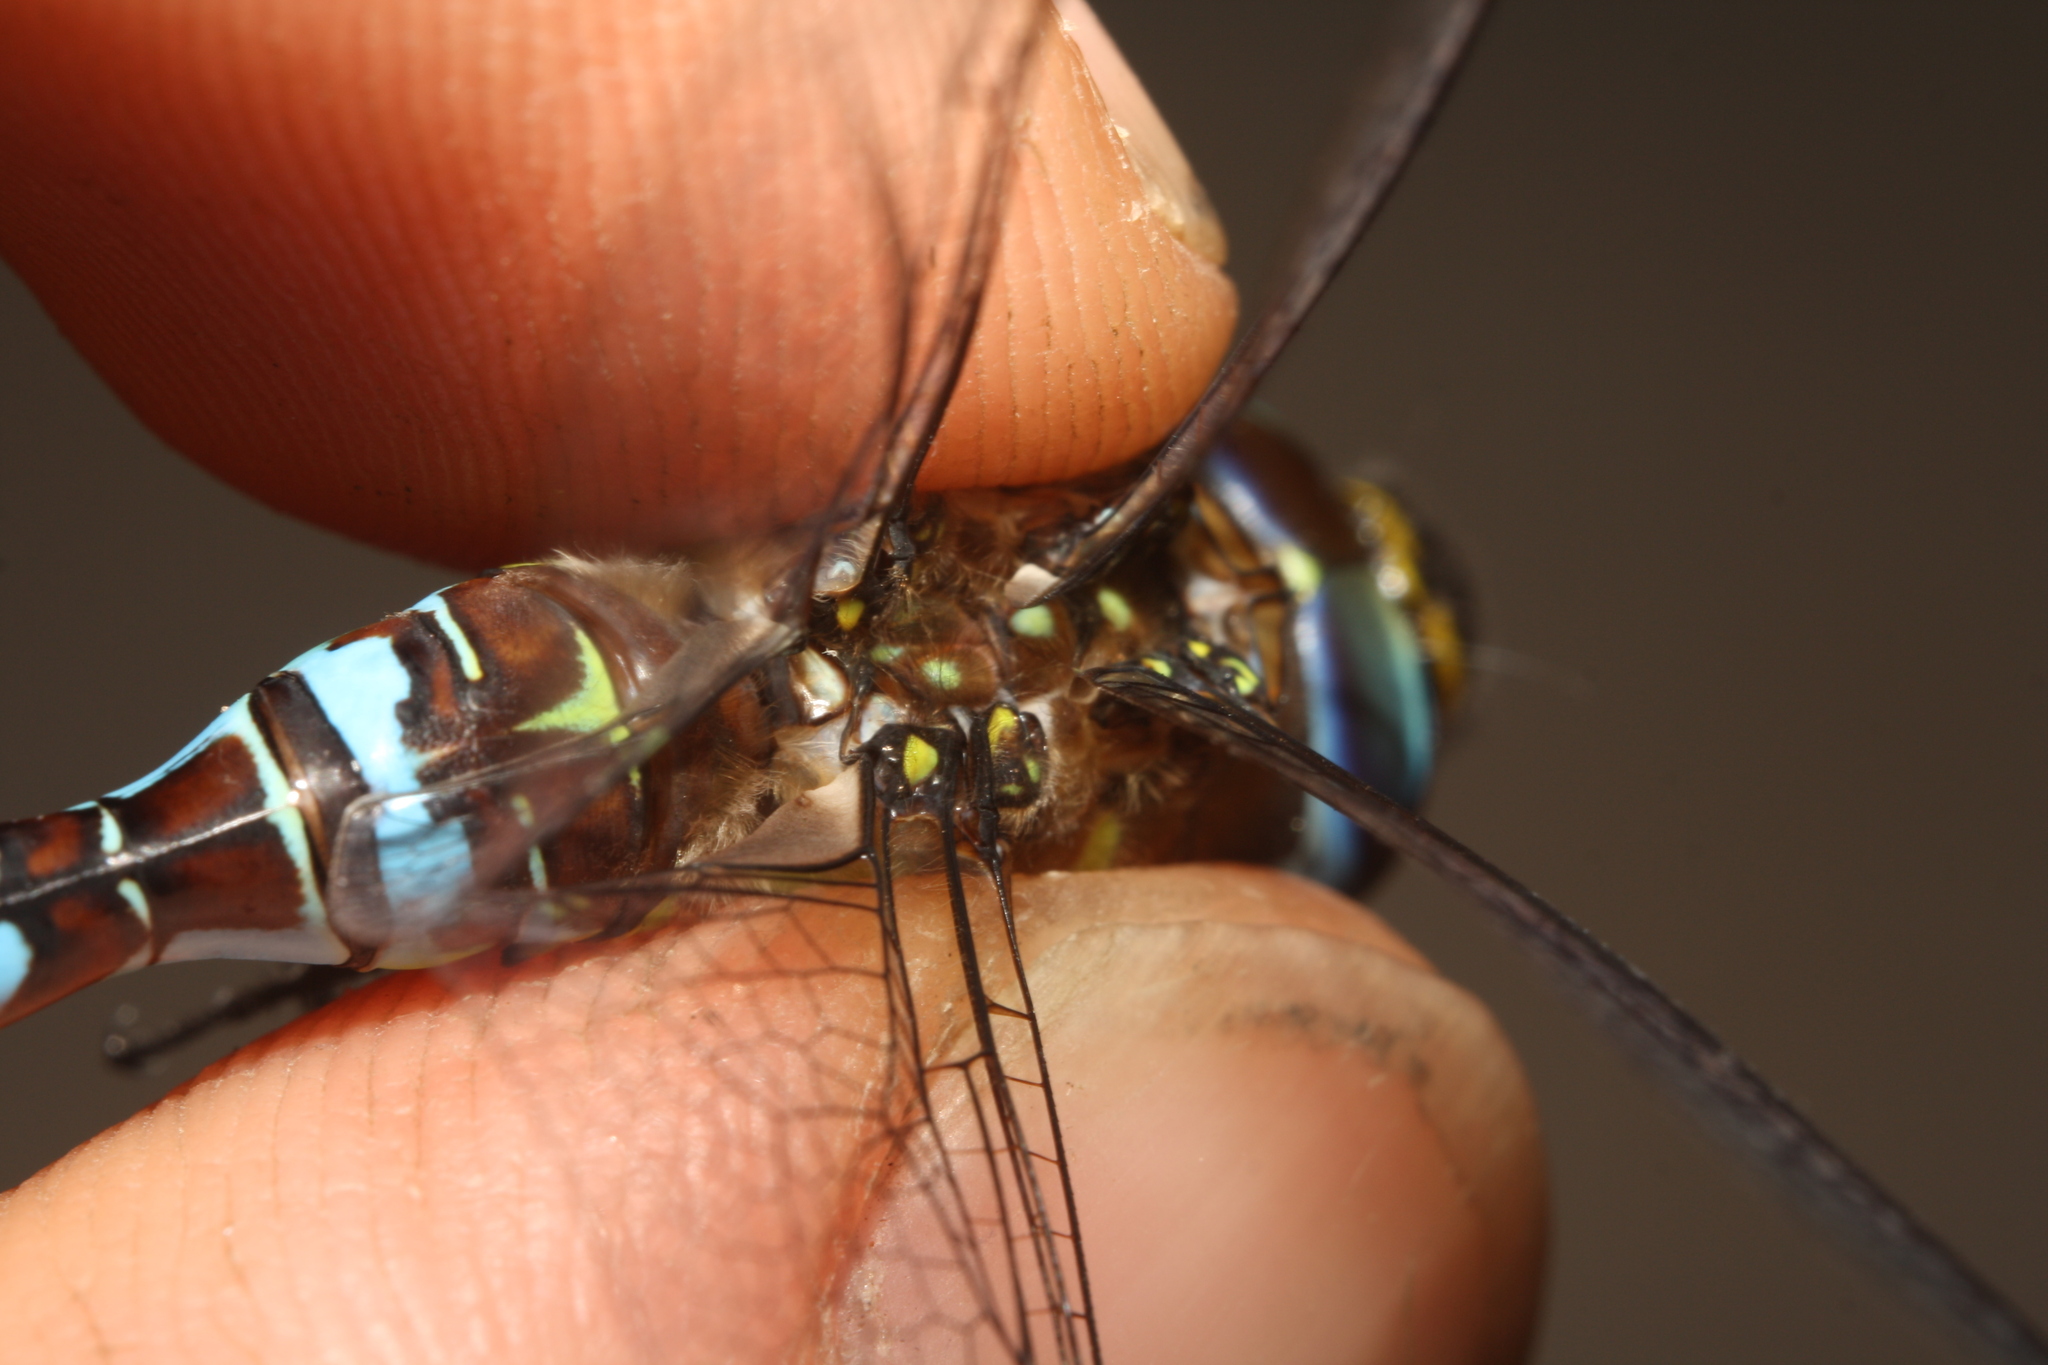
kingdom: Animalia
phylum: Arthropoda
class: Insecta
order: Odonata
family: Aeshnidae
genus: Aeshna
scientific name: Aeshna mixta
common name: Migrant hawker
